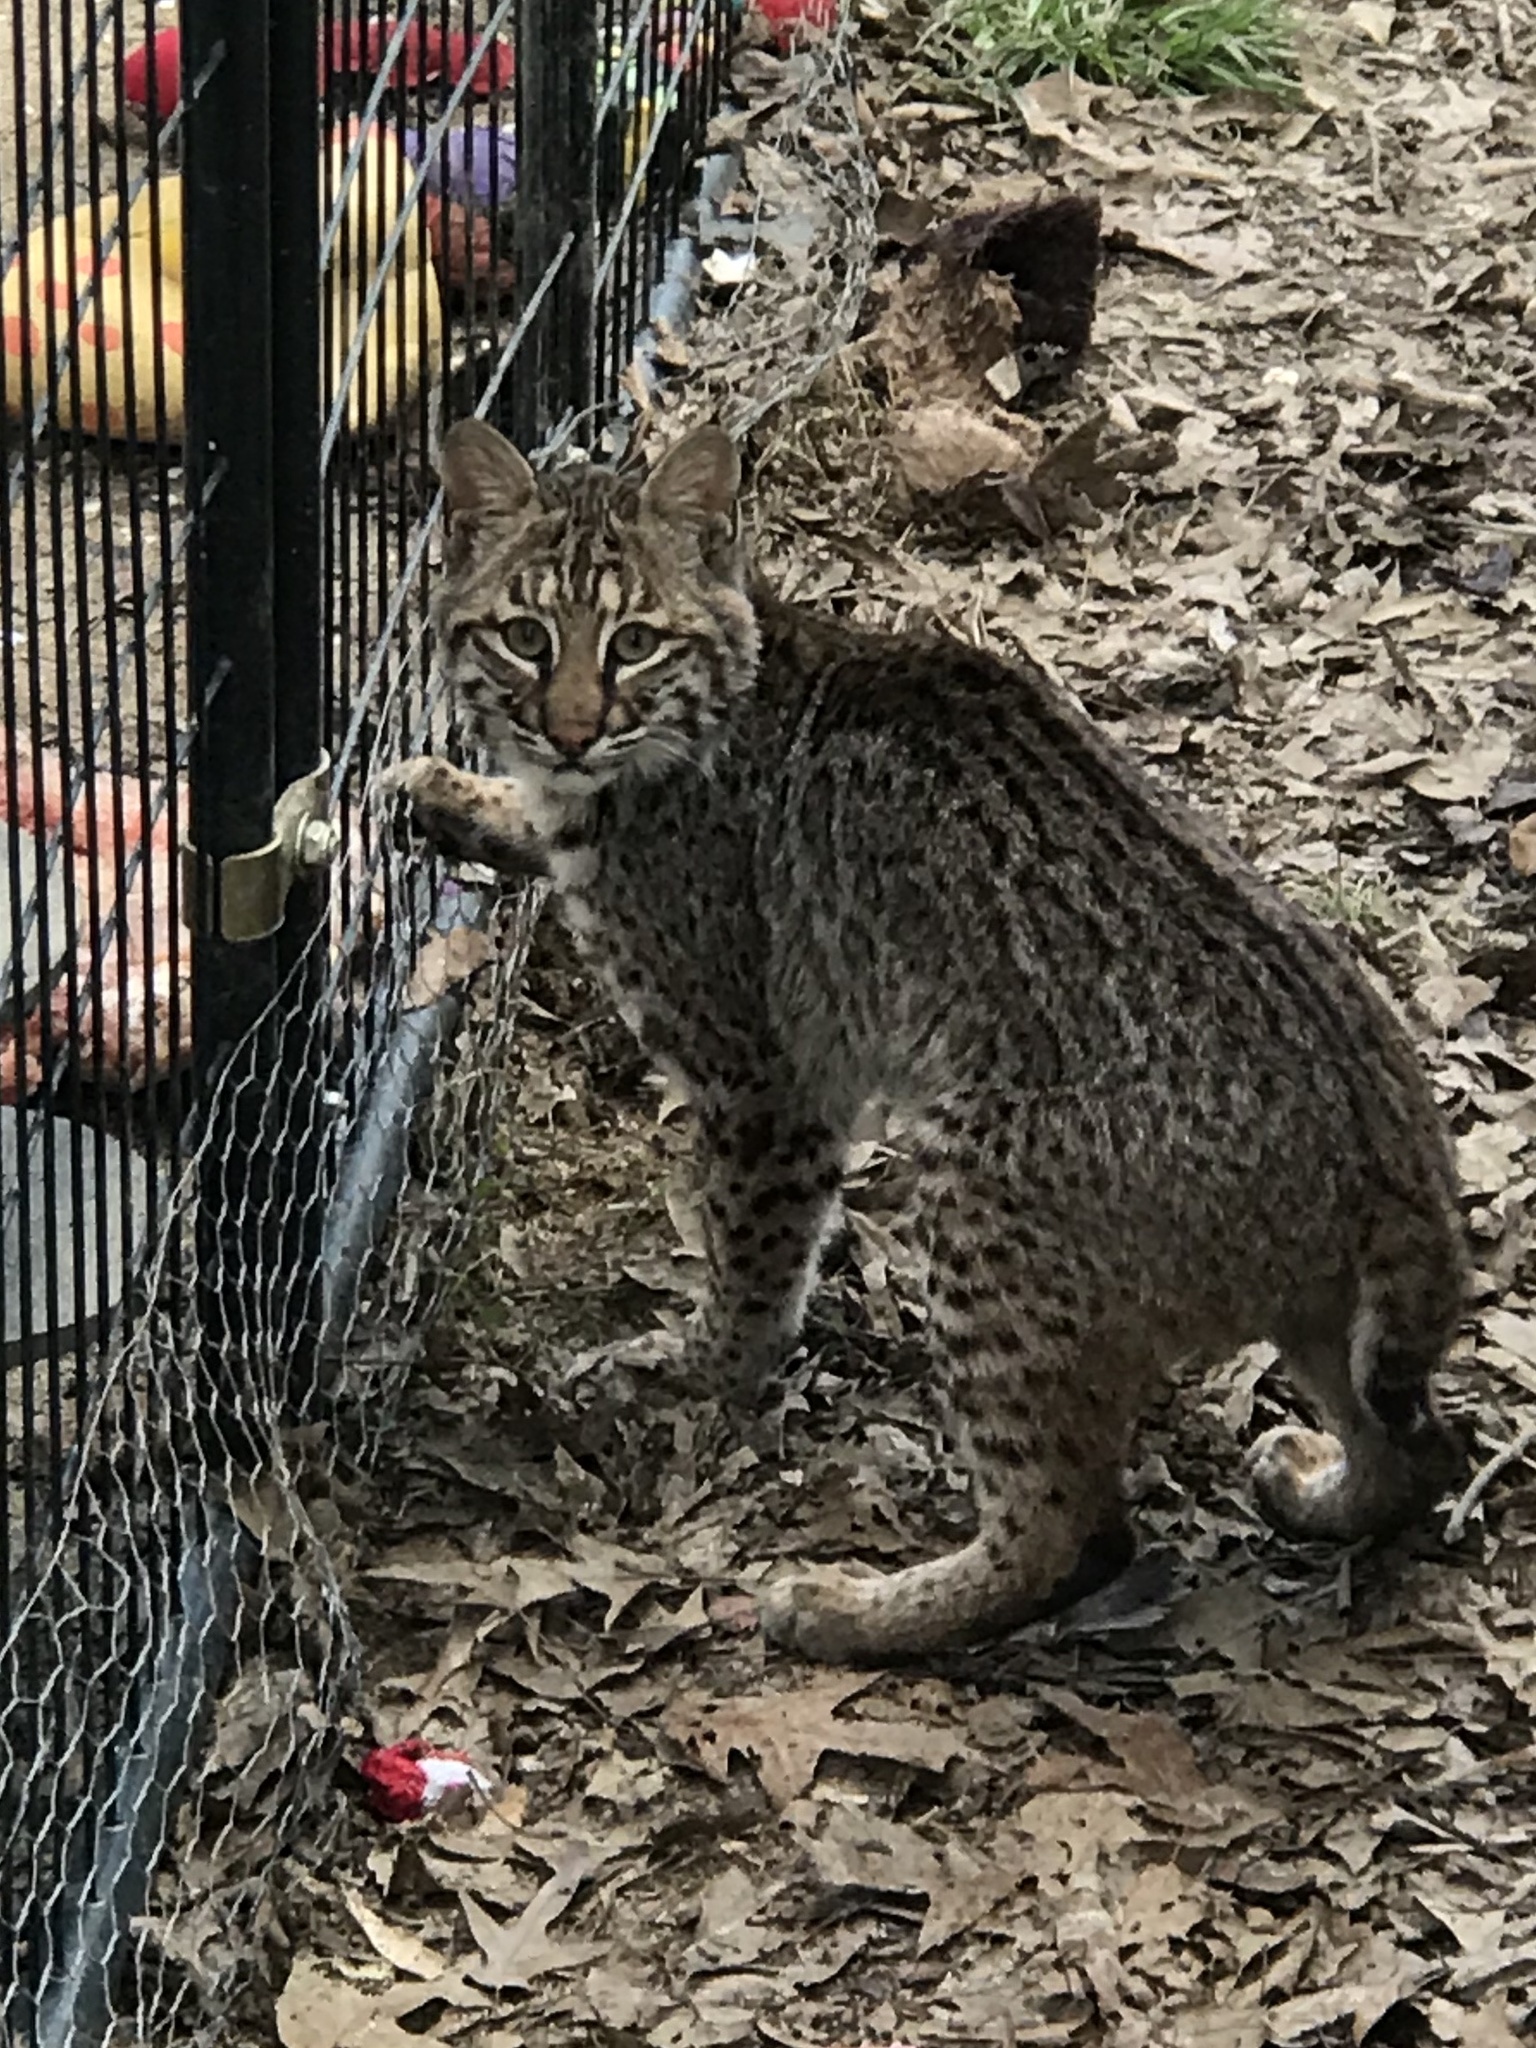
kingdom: Animalia
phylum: Chordata
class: Mammalia
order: Carnivora
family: Felidae
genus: Lynx
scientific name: Lynx rufus
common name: Bobcat
